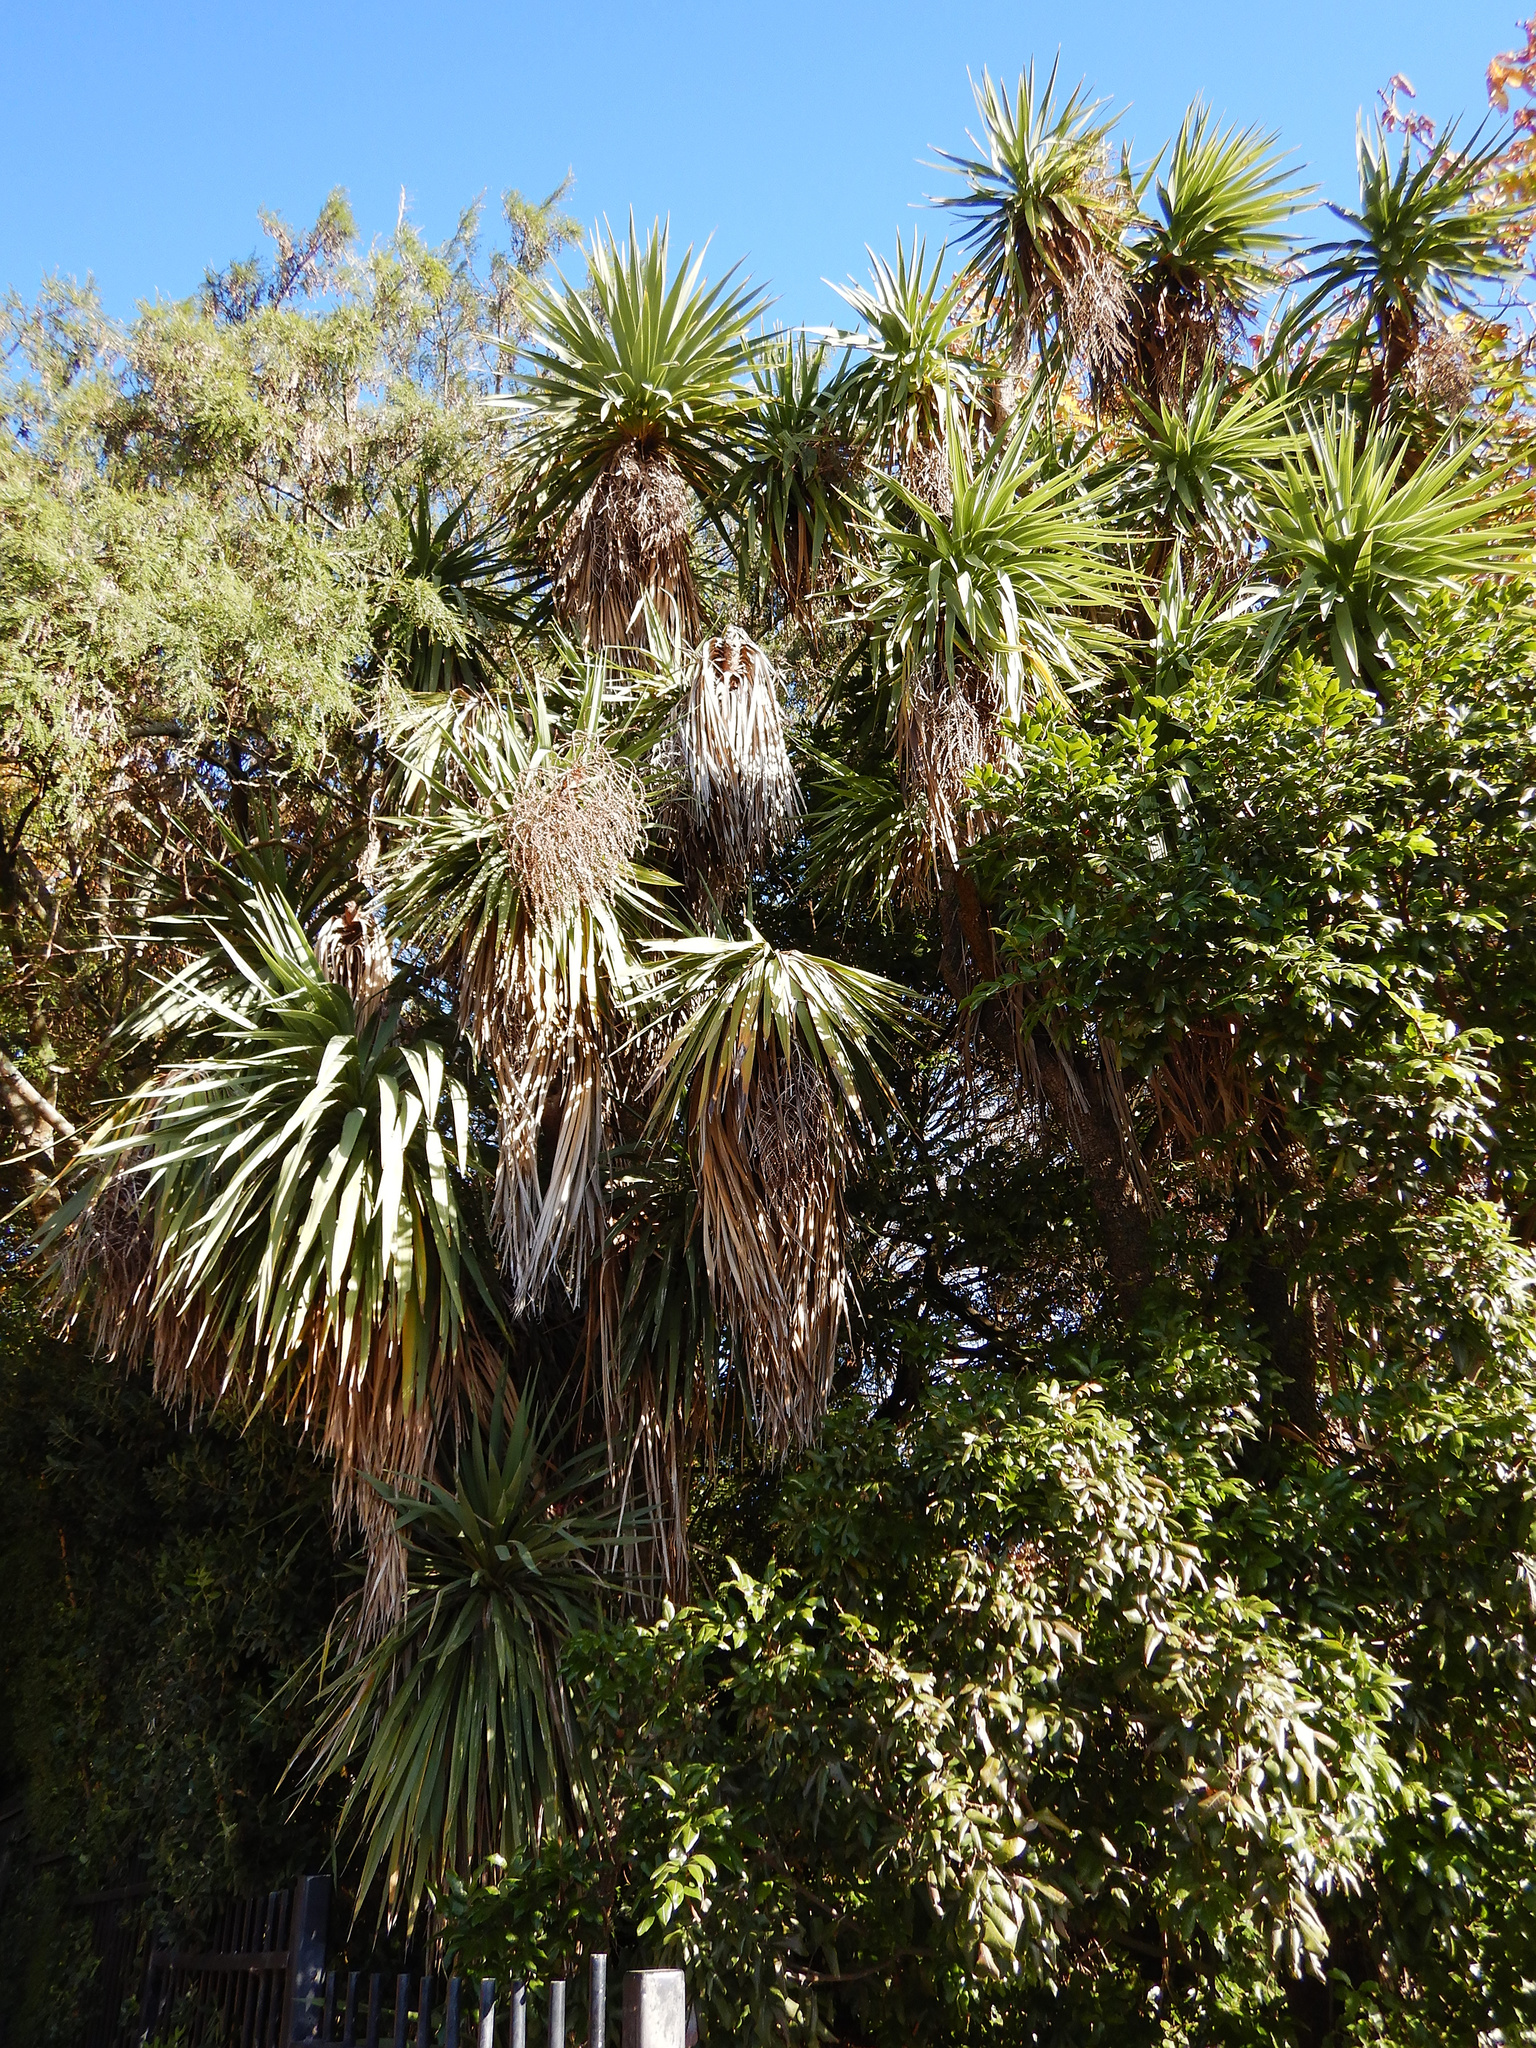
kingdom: Plantae
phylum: Tracheophyta
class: Liliopsida
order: Asparagales
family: Asparagaceae
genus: Cordyline
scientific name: Cordyline australis
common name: Cabbage-palm
